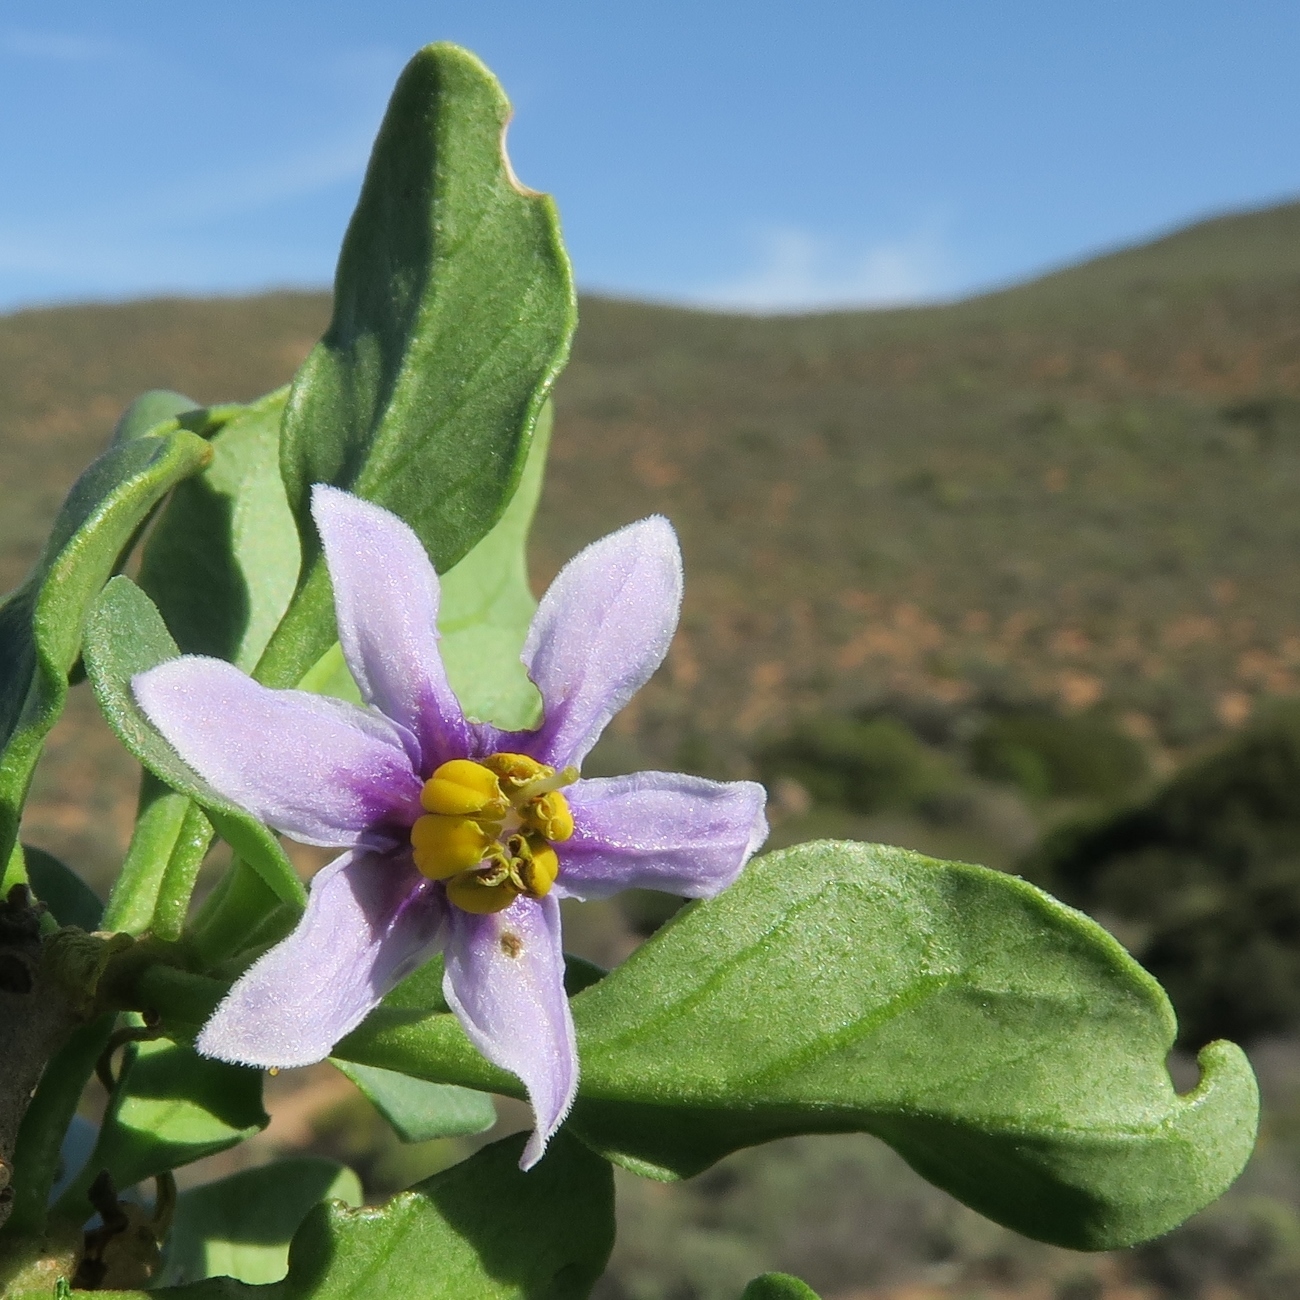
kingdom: Plantae
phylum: Tracheophyta
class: Magnoliopsida
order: Solanales
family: Solanaceae
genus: Solanum
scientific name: Solanum guineense
